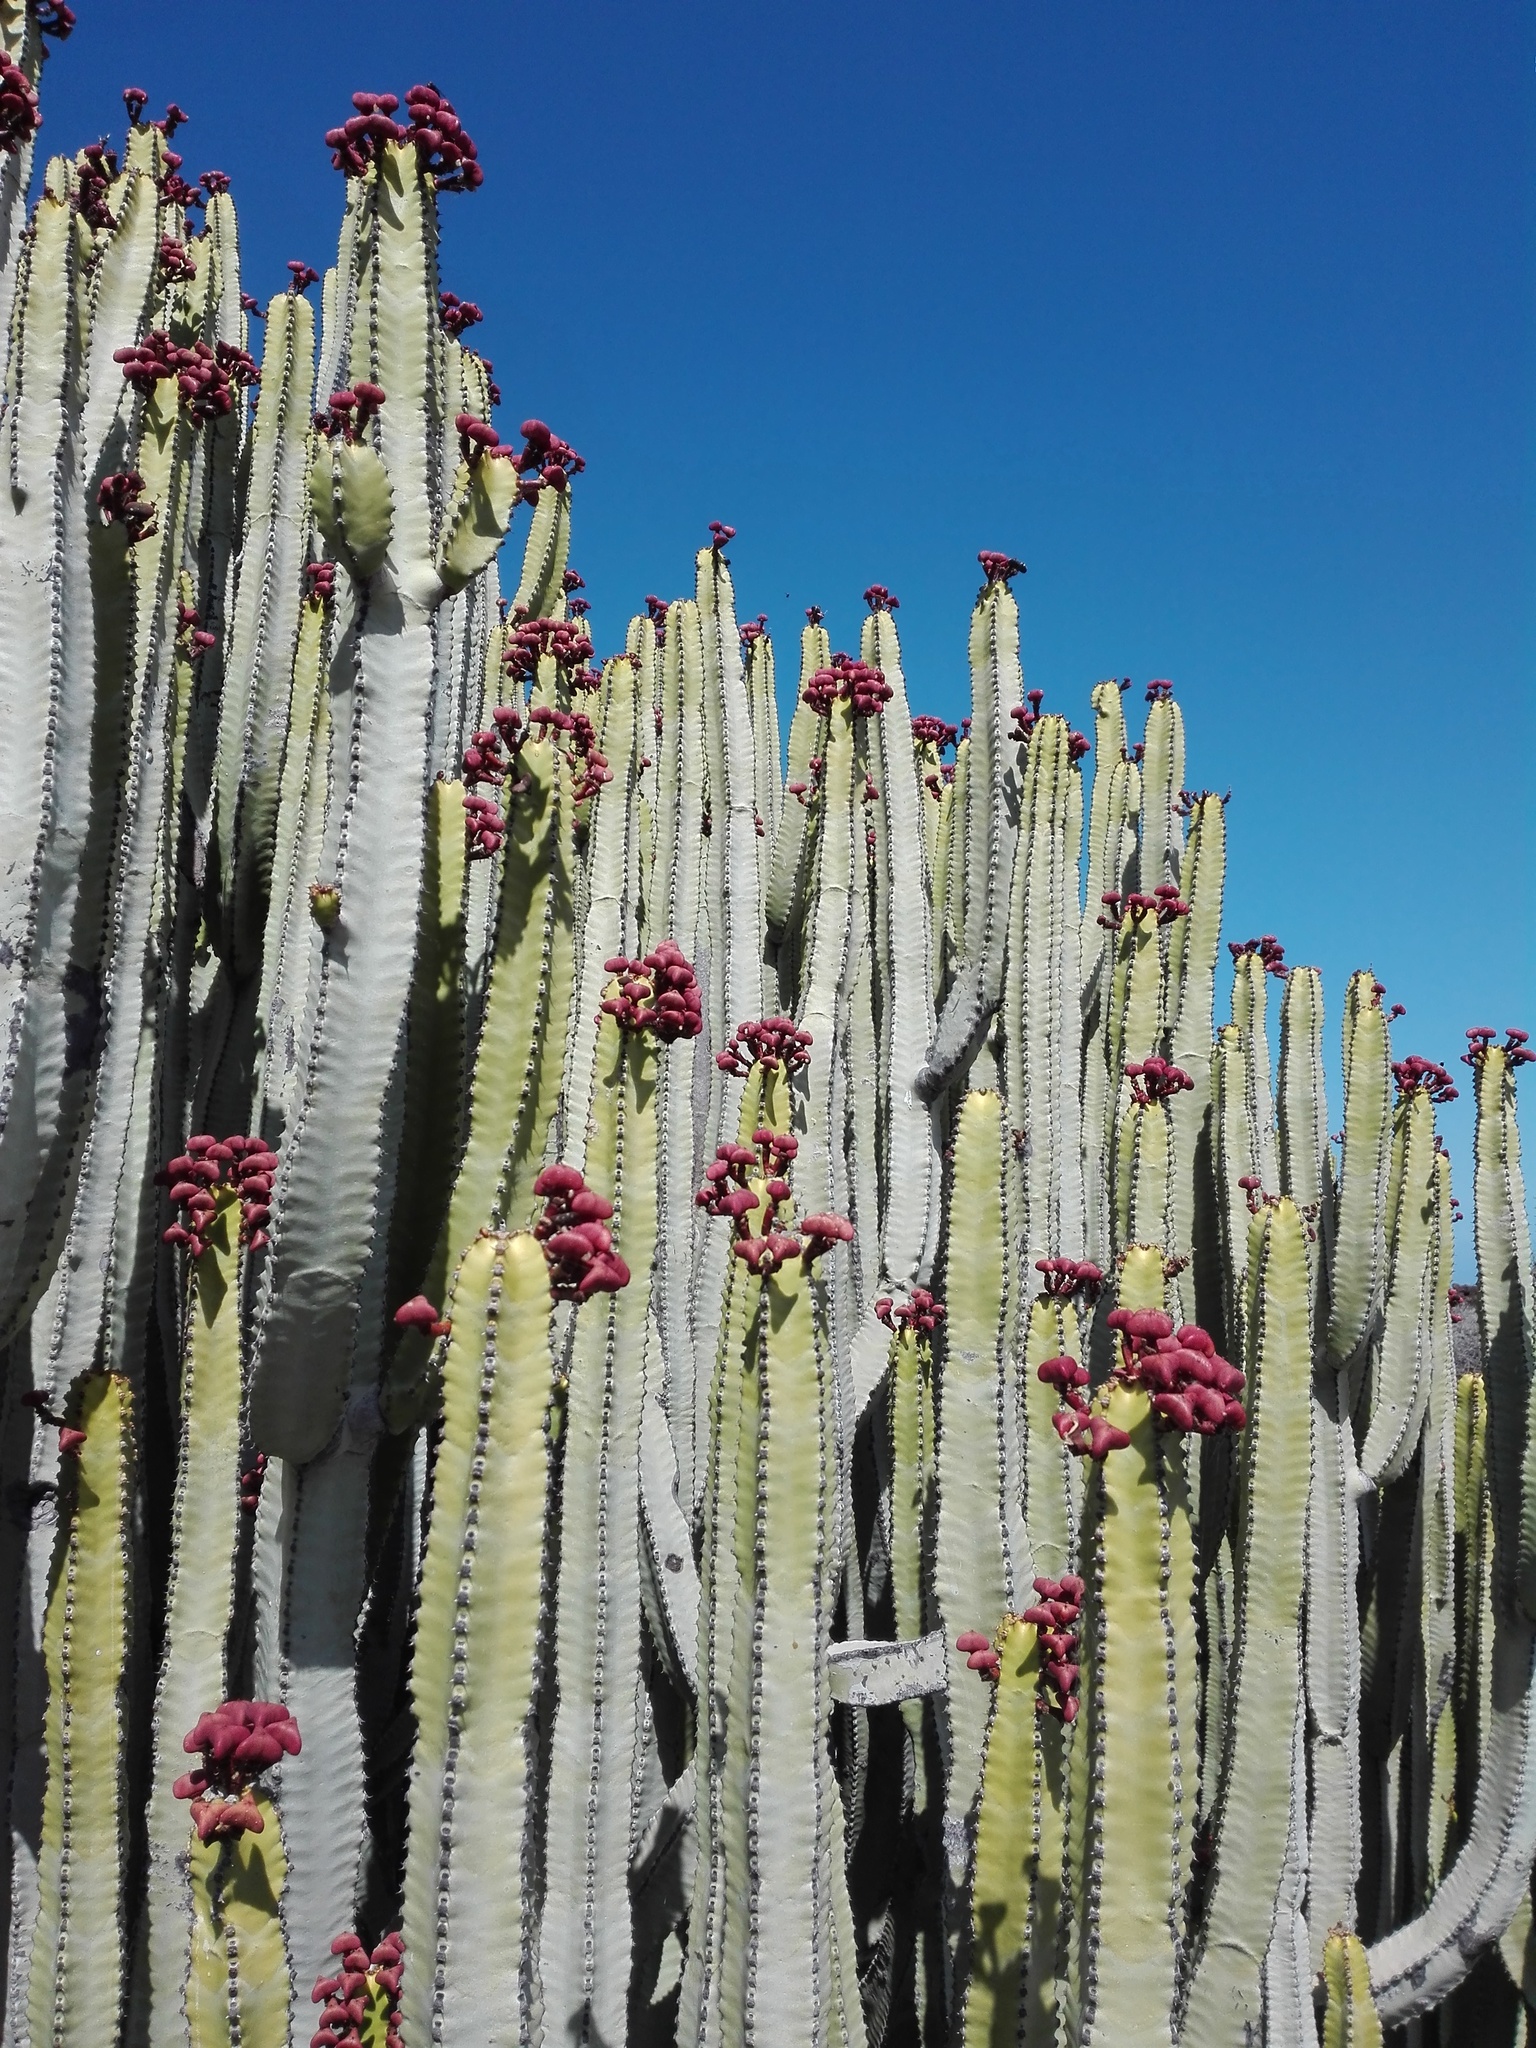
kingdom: Plantae
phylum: Tracheophyta
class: Magnoliopsida
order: Malpighiales
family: Euphorbiaceae
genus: Euphorbia
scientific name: Euphorbia canariensis
